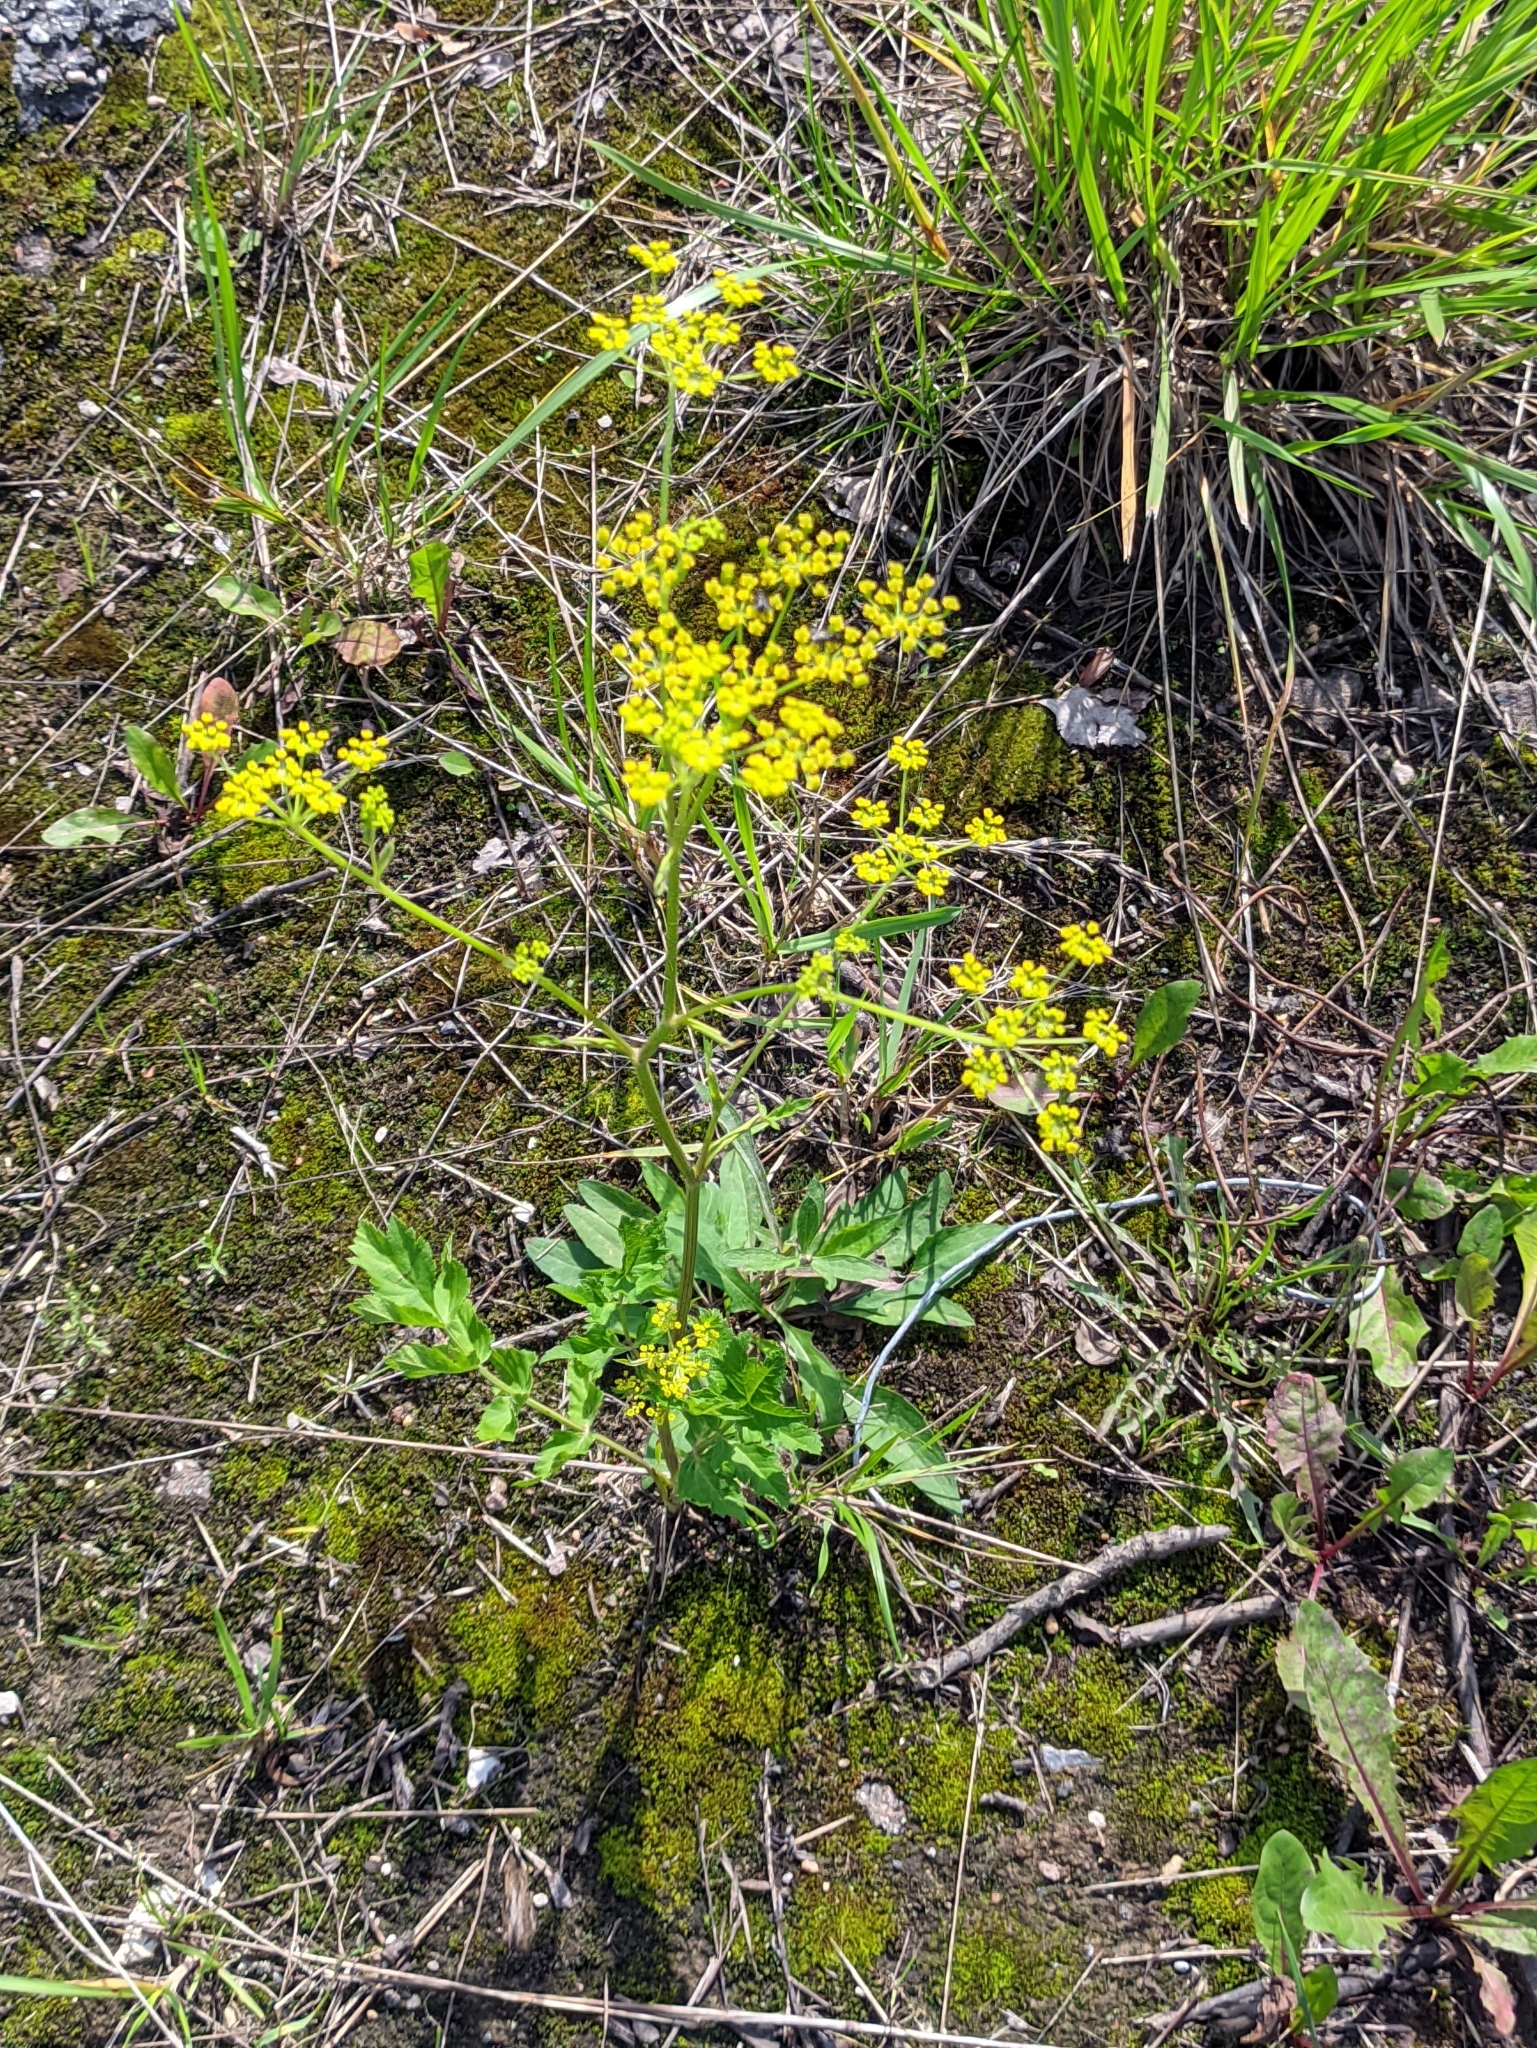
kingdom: Plantae
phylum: Tracheophyta
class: Magnoliopsida
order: Apiales
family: Apiaceae
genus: Pastinaca
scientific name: Pastinaca sativa
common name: Wild parsnip
